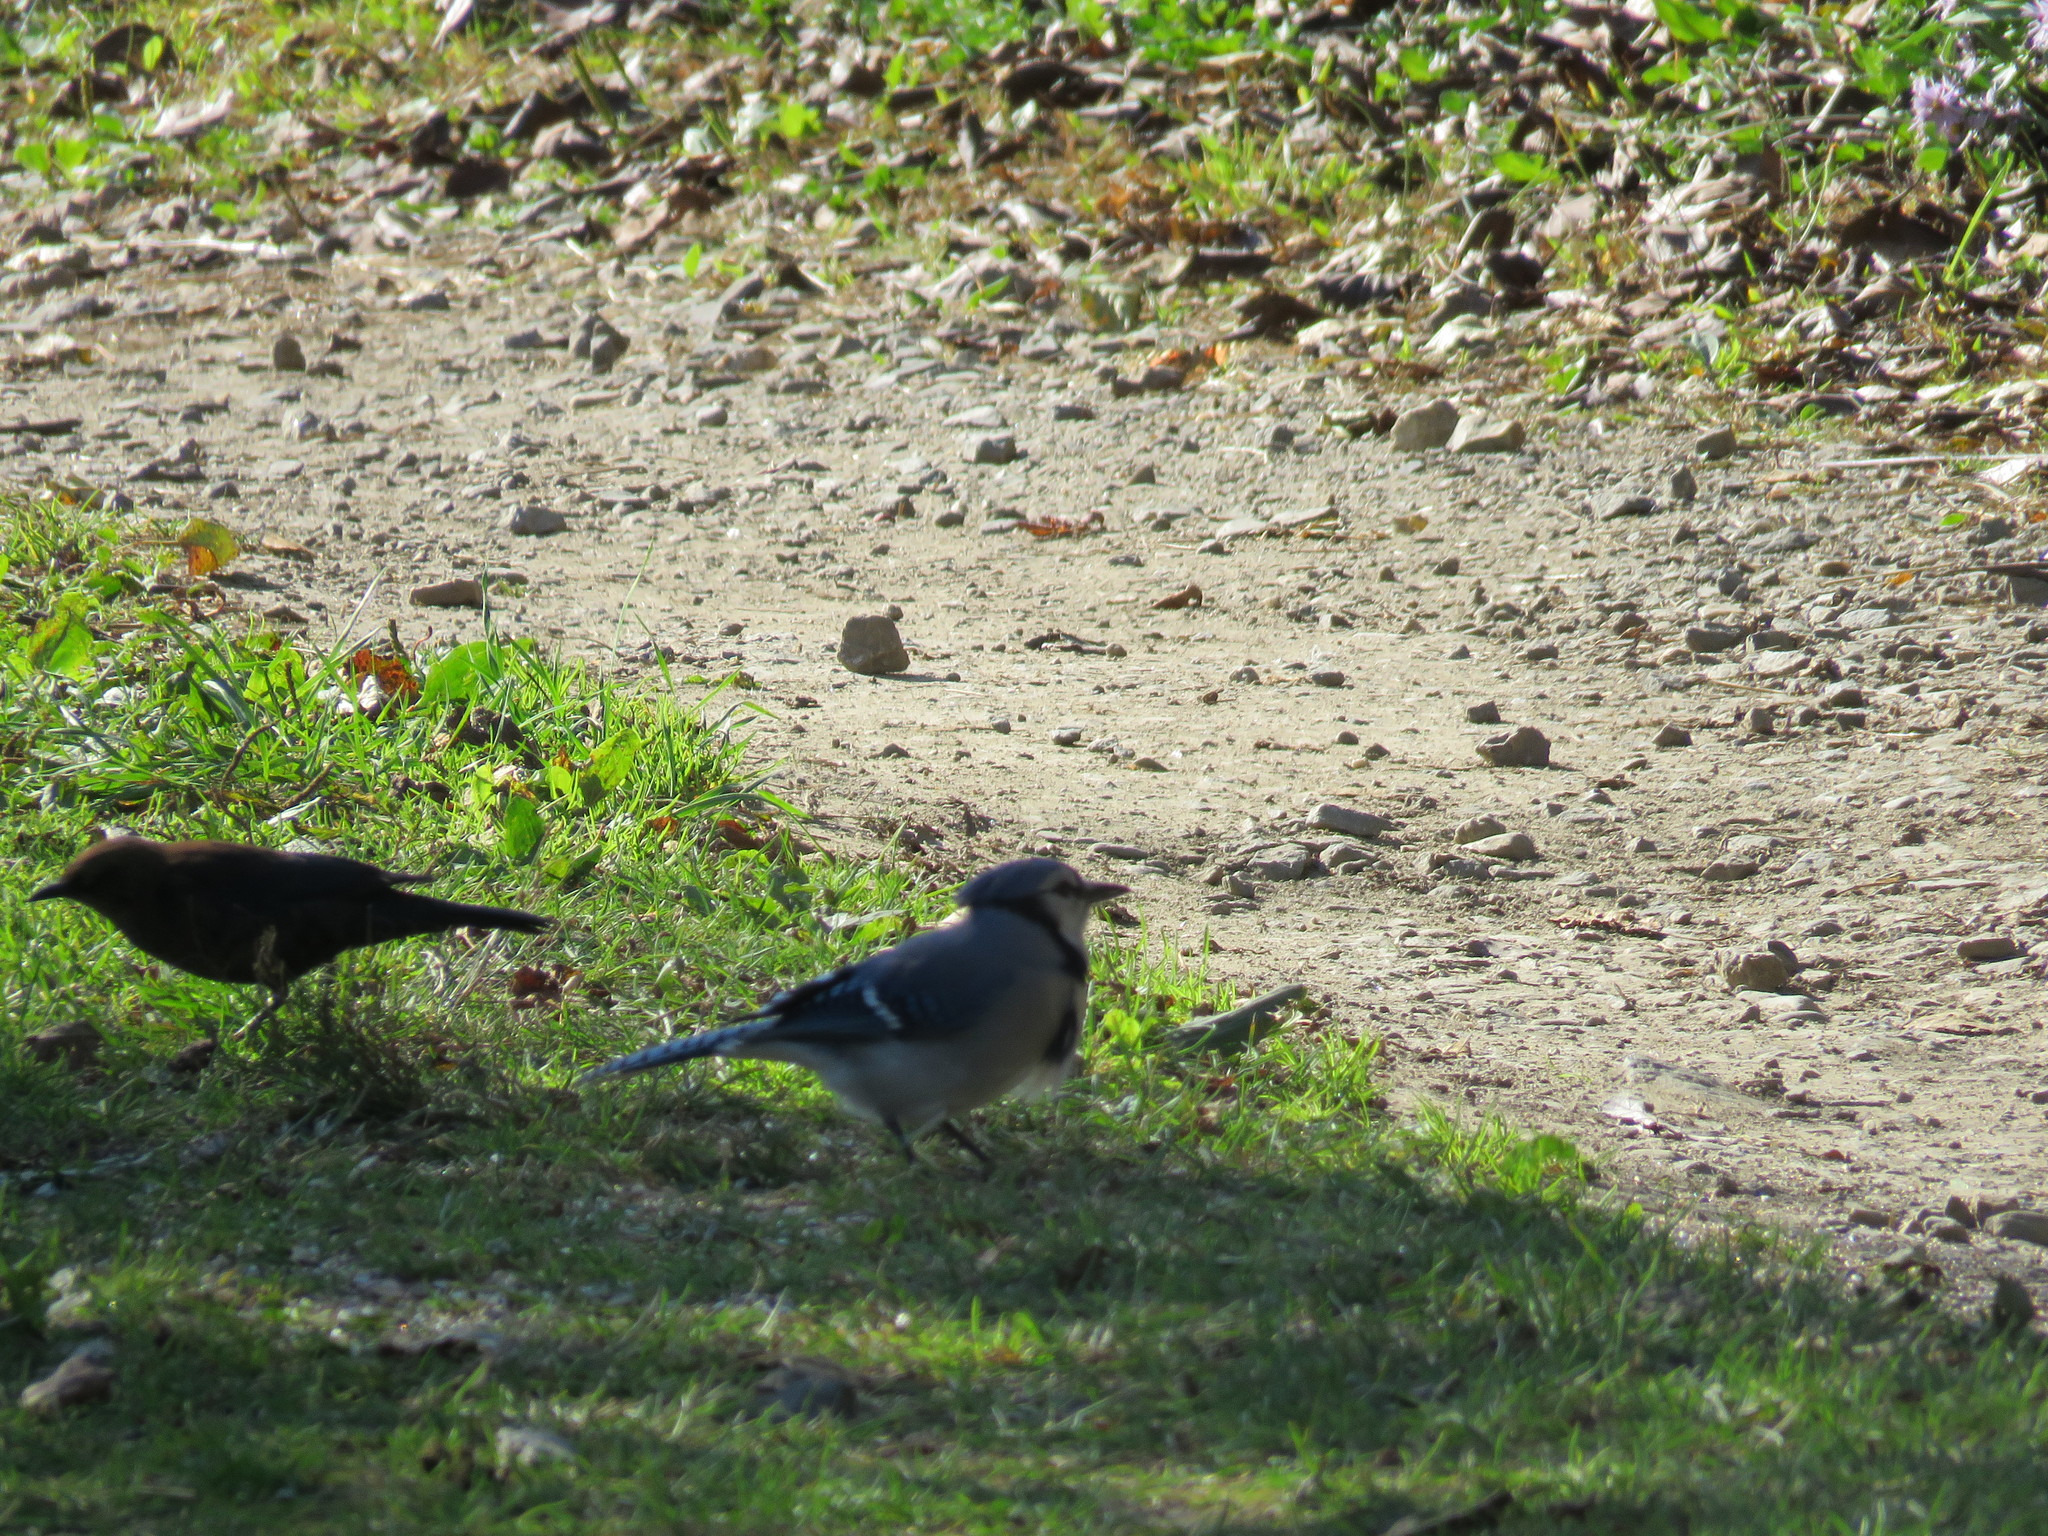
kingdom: Animalia
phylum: Chordata
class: Aves
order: Passeriformes
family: Corvidae
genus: Cyanocitta
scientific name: Cyanocitta cristata
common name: Blue jay
